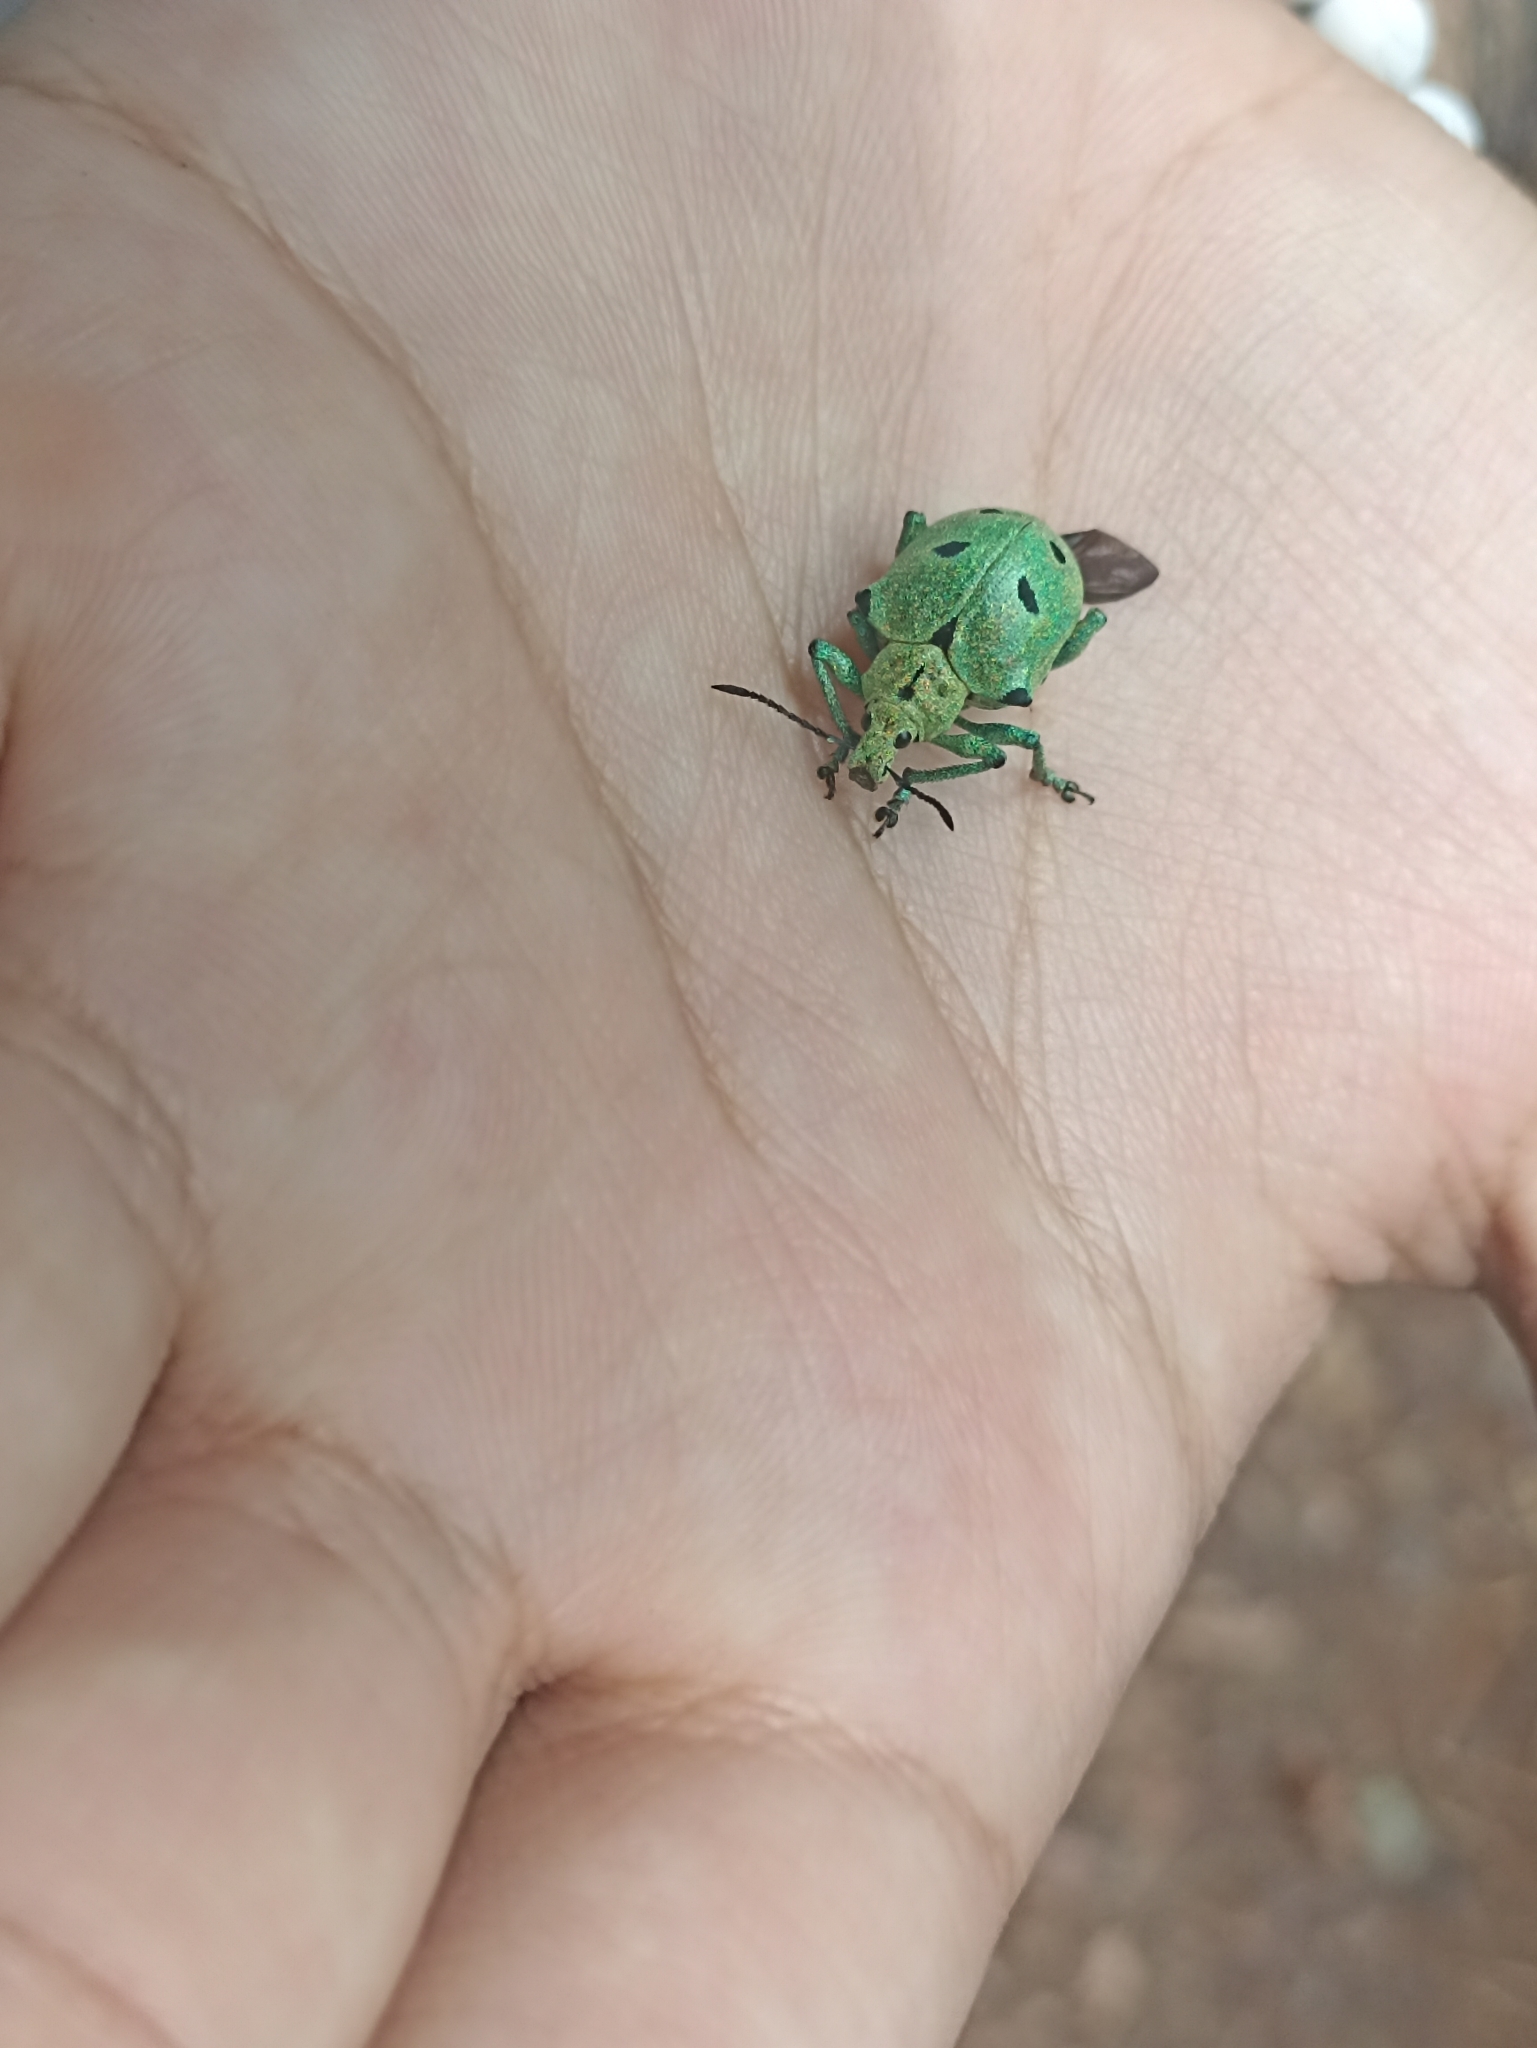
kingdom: Animalia
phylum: Arthropoda
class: Insecta
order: Coleoptera
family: Curculionidae
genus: Polyteles
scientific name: Polyteles stevenii
